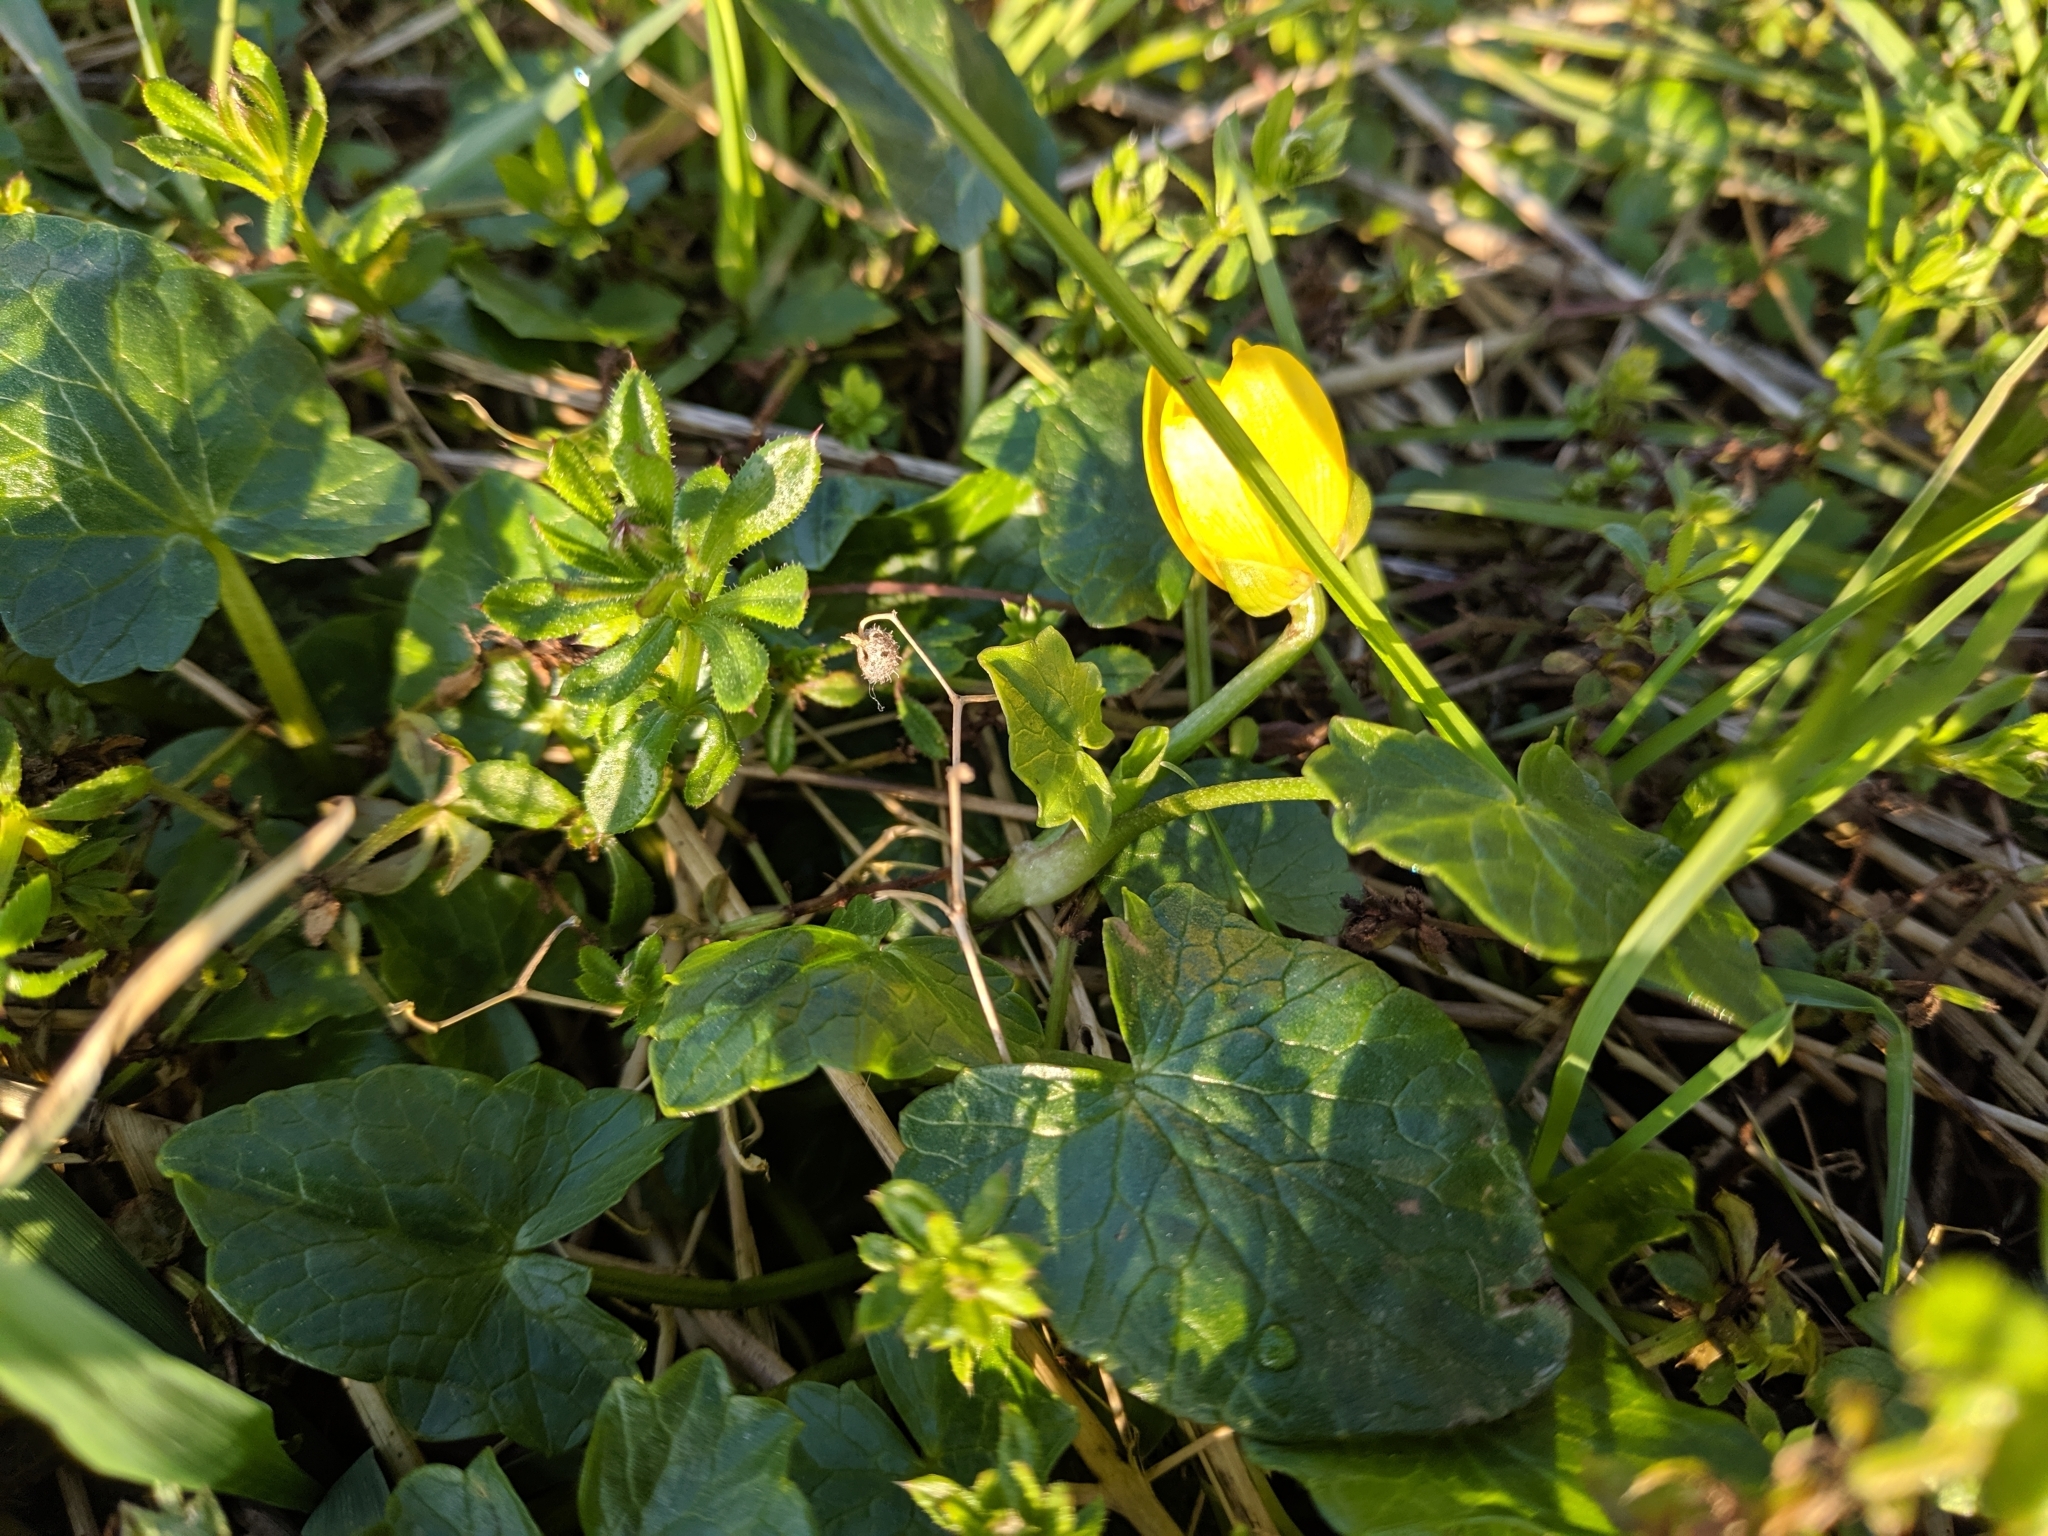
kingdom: Plantae
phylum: Tracheophyta
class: Magnoliopsida
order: Ranunculales
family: Ranunculaceae
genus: Ficaria
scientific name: Ficaria verna
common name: Lesser celandine
